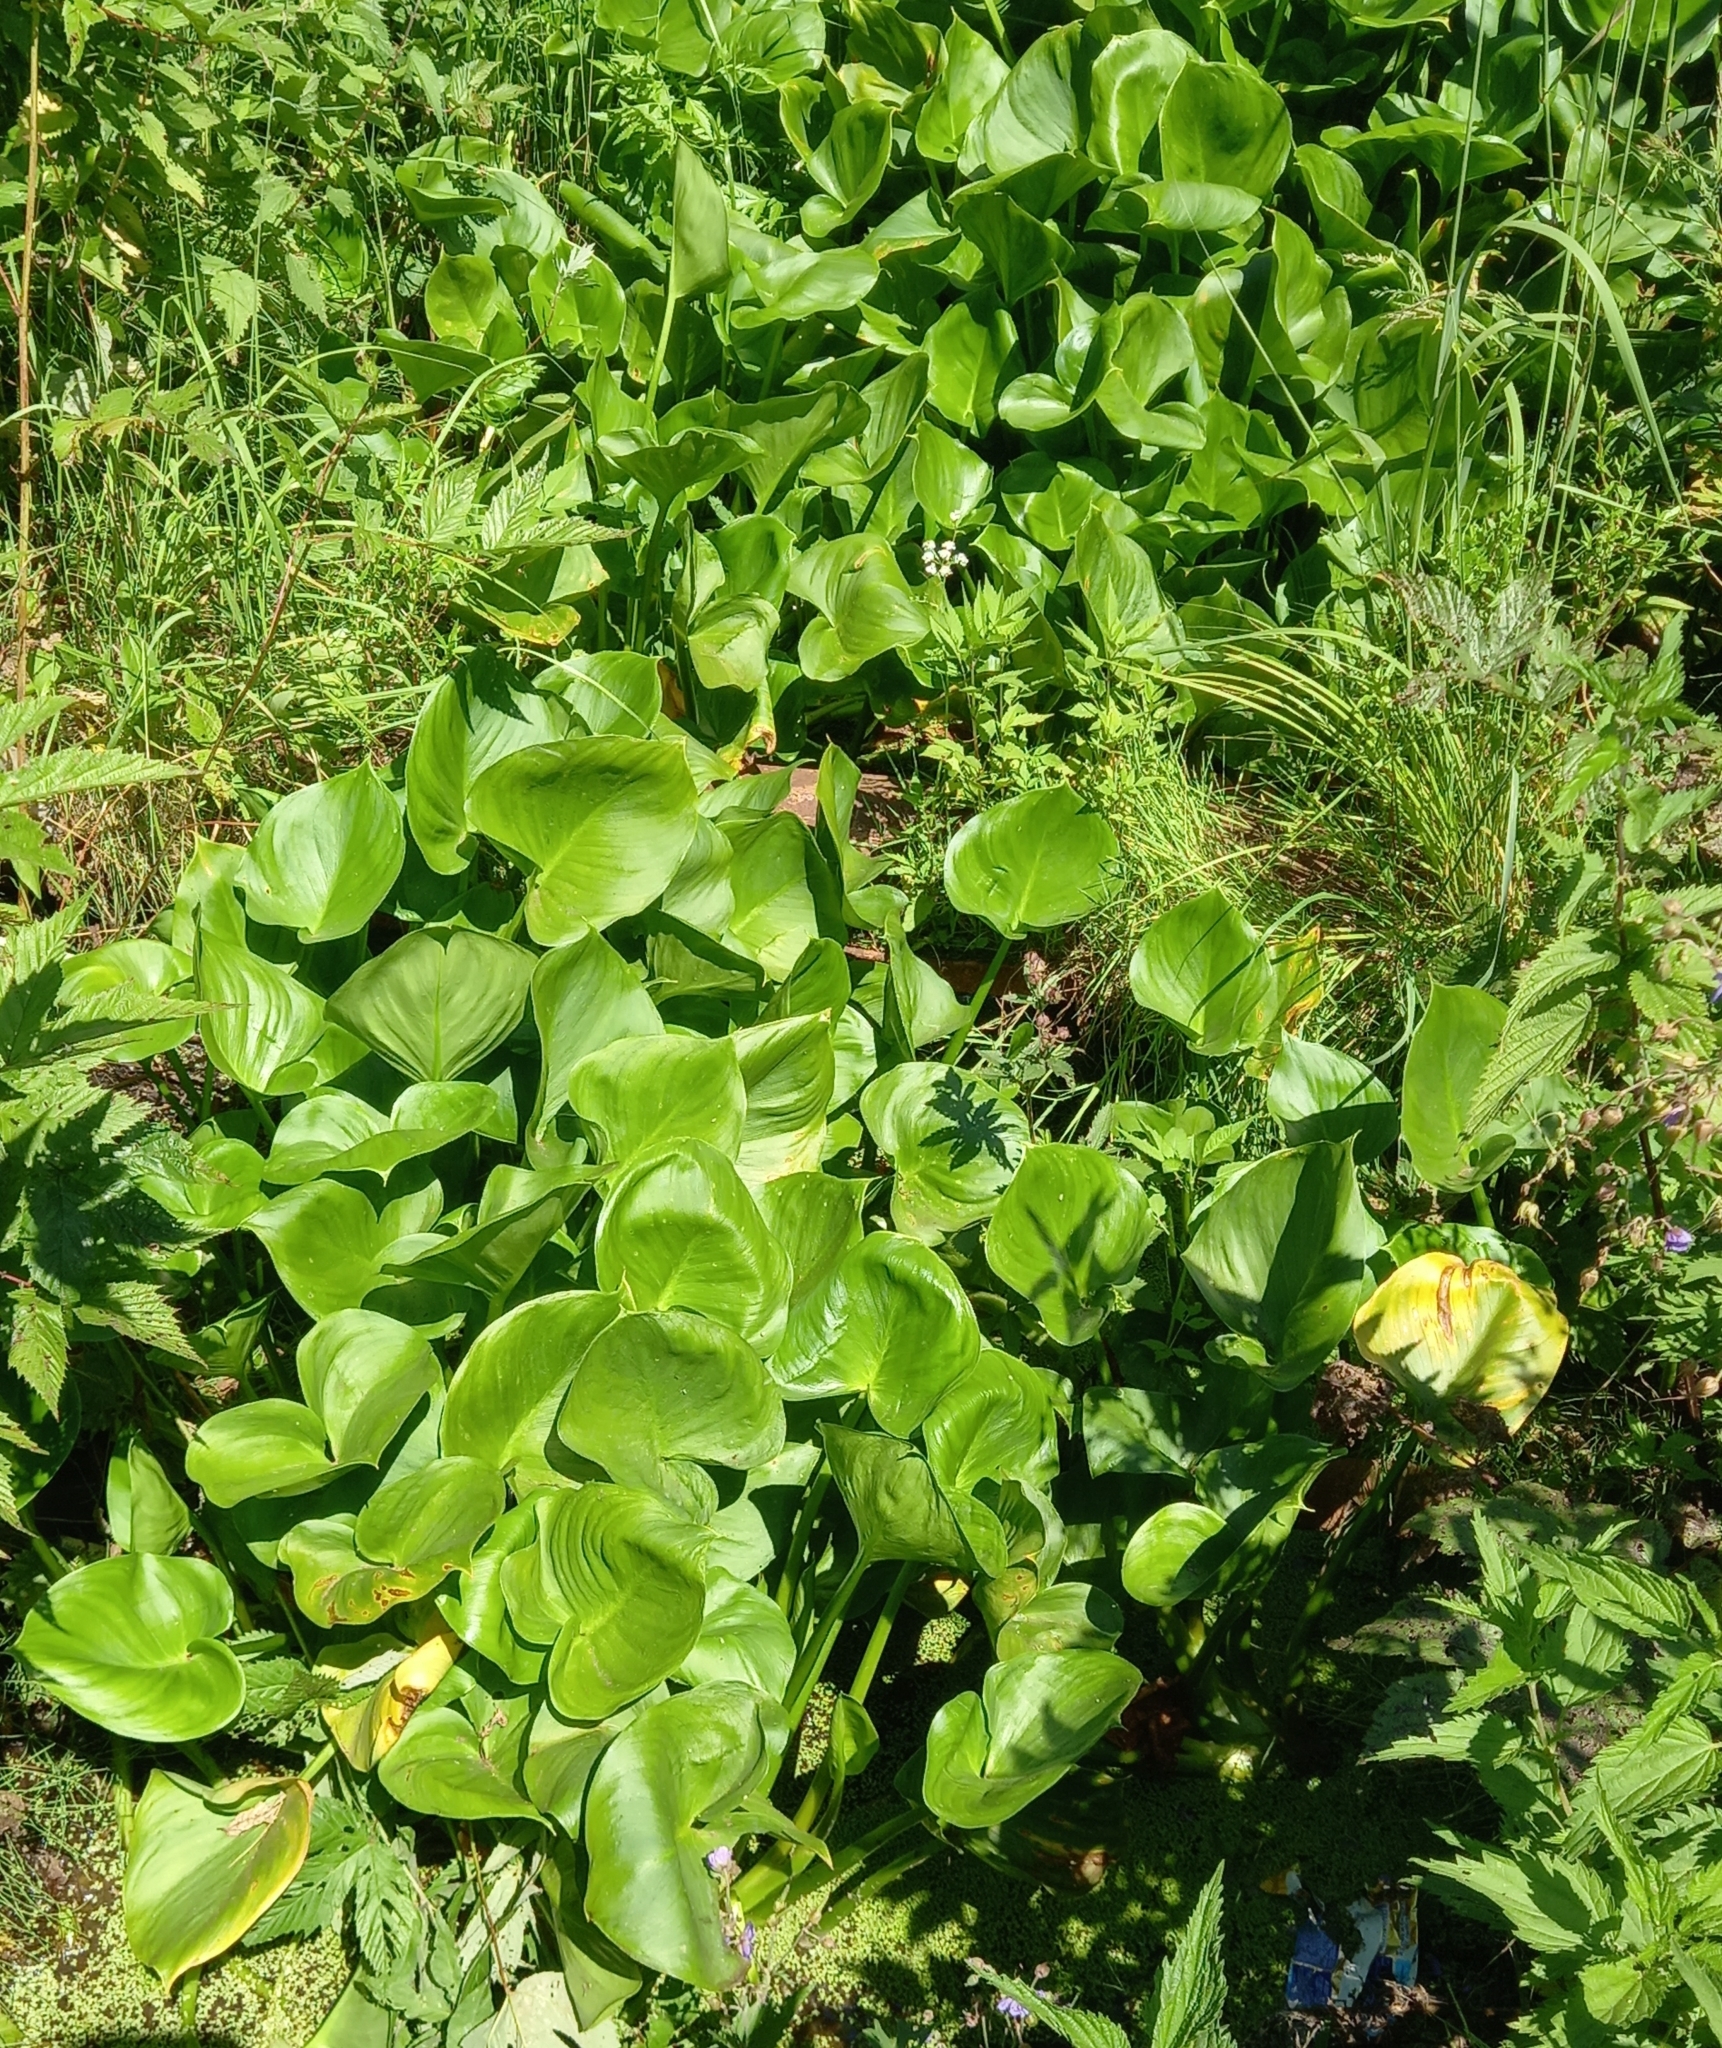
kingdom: Plantae
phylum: Tracheophyta
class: Liliopsida
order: Alismatales
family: Araceae
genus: Calla
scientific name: Calla palustris
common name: Bog arum
